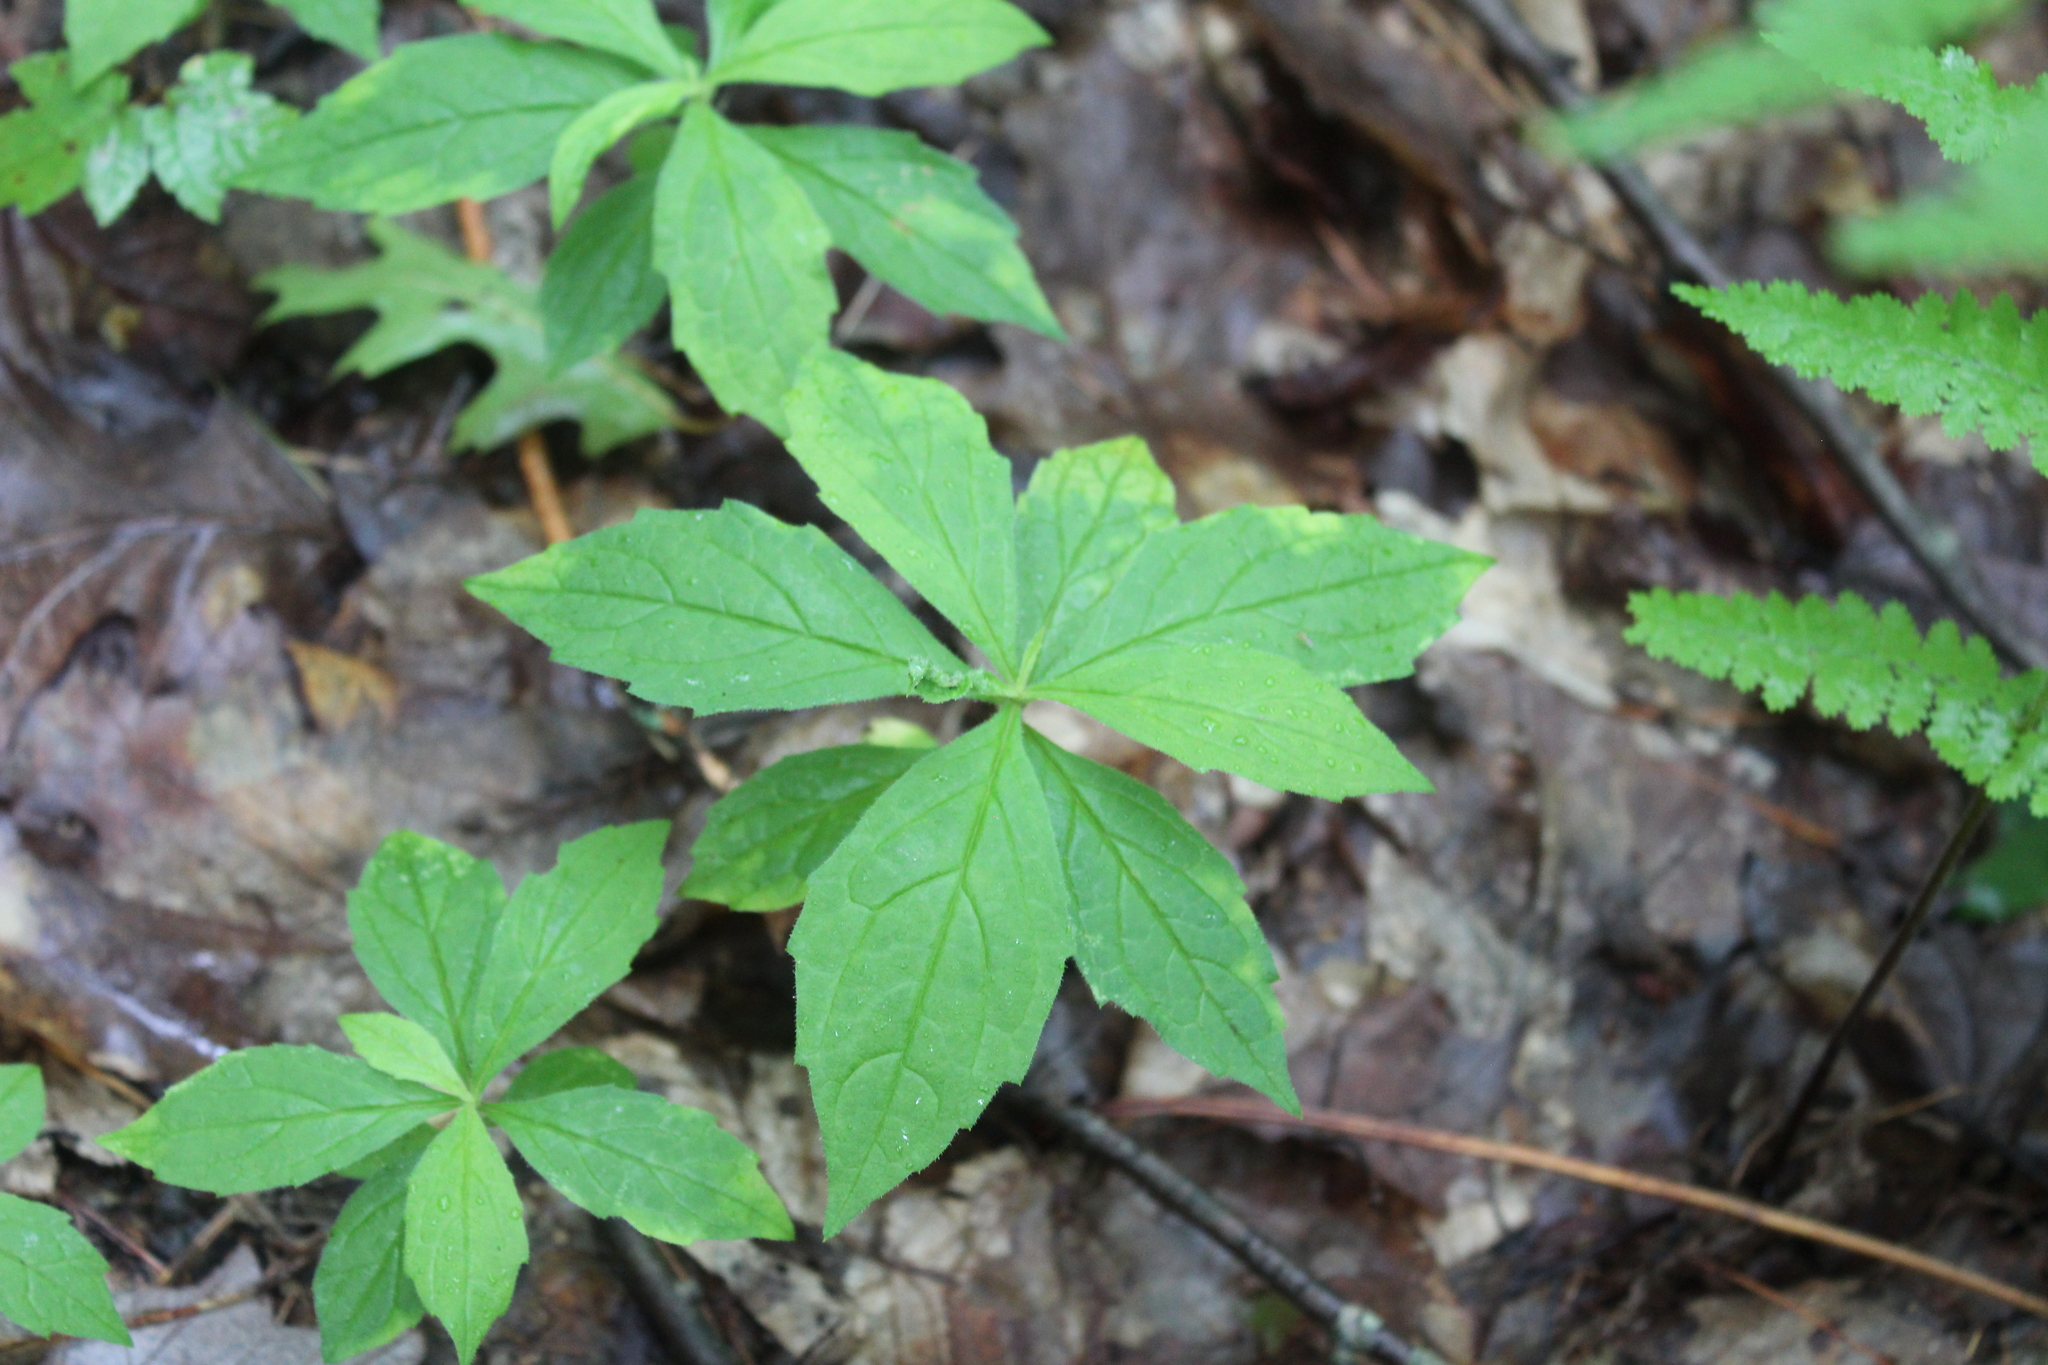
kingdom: Plantae
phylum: Tracheophyta
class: Magnoliopsida
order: Asterales
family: Asteraceae
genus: Oclemena
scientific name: Oclemena acuminata
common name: Mountain aster
